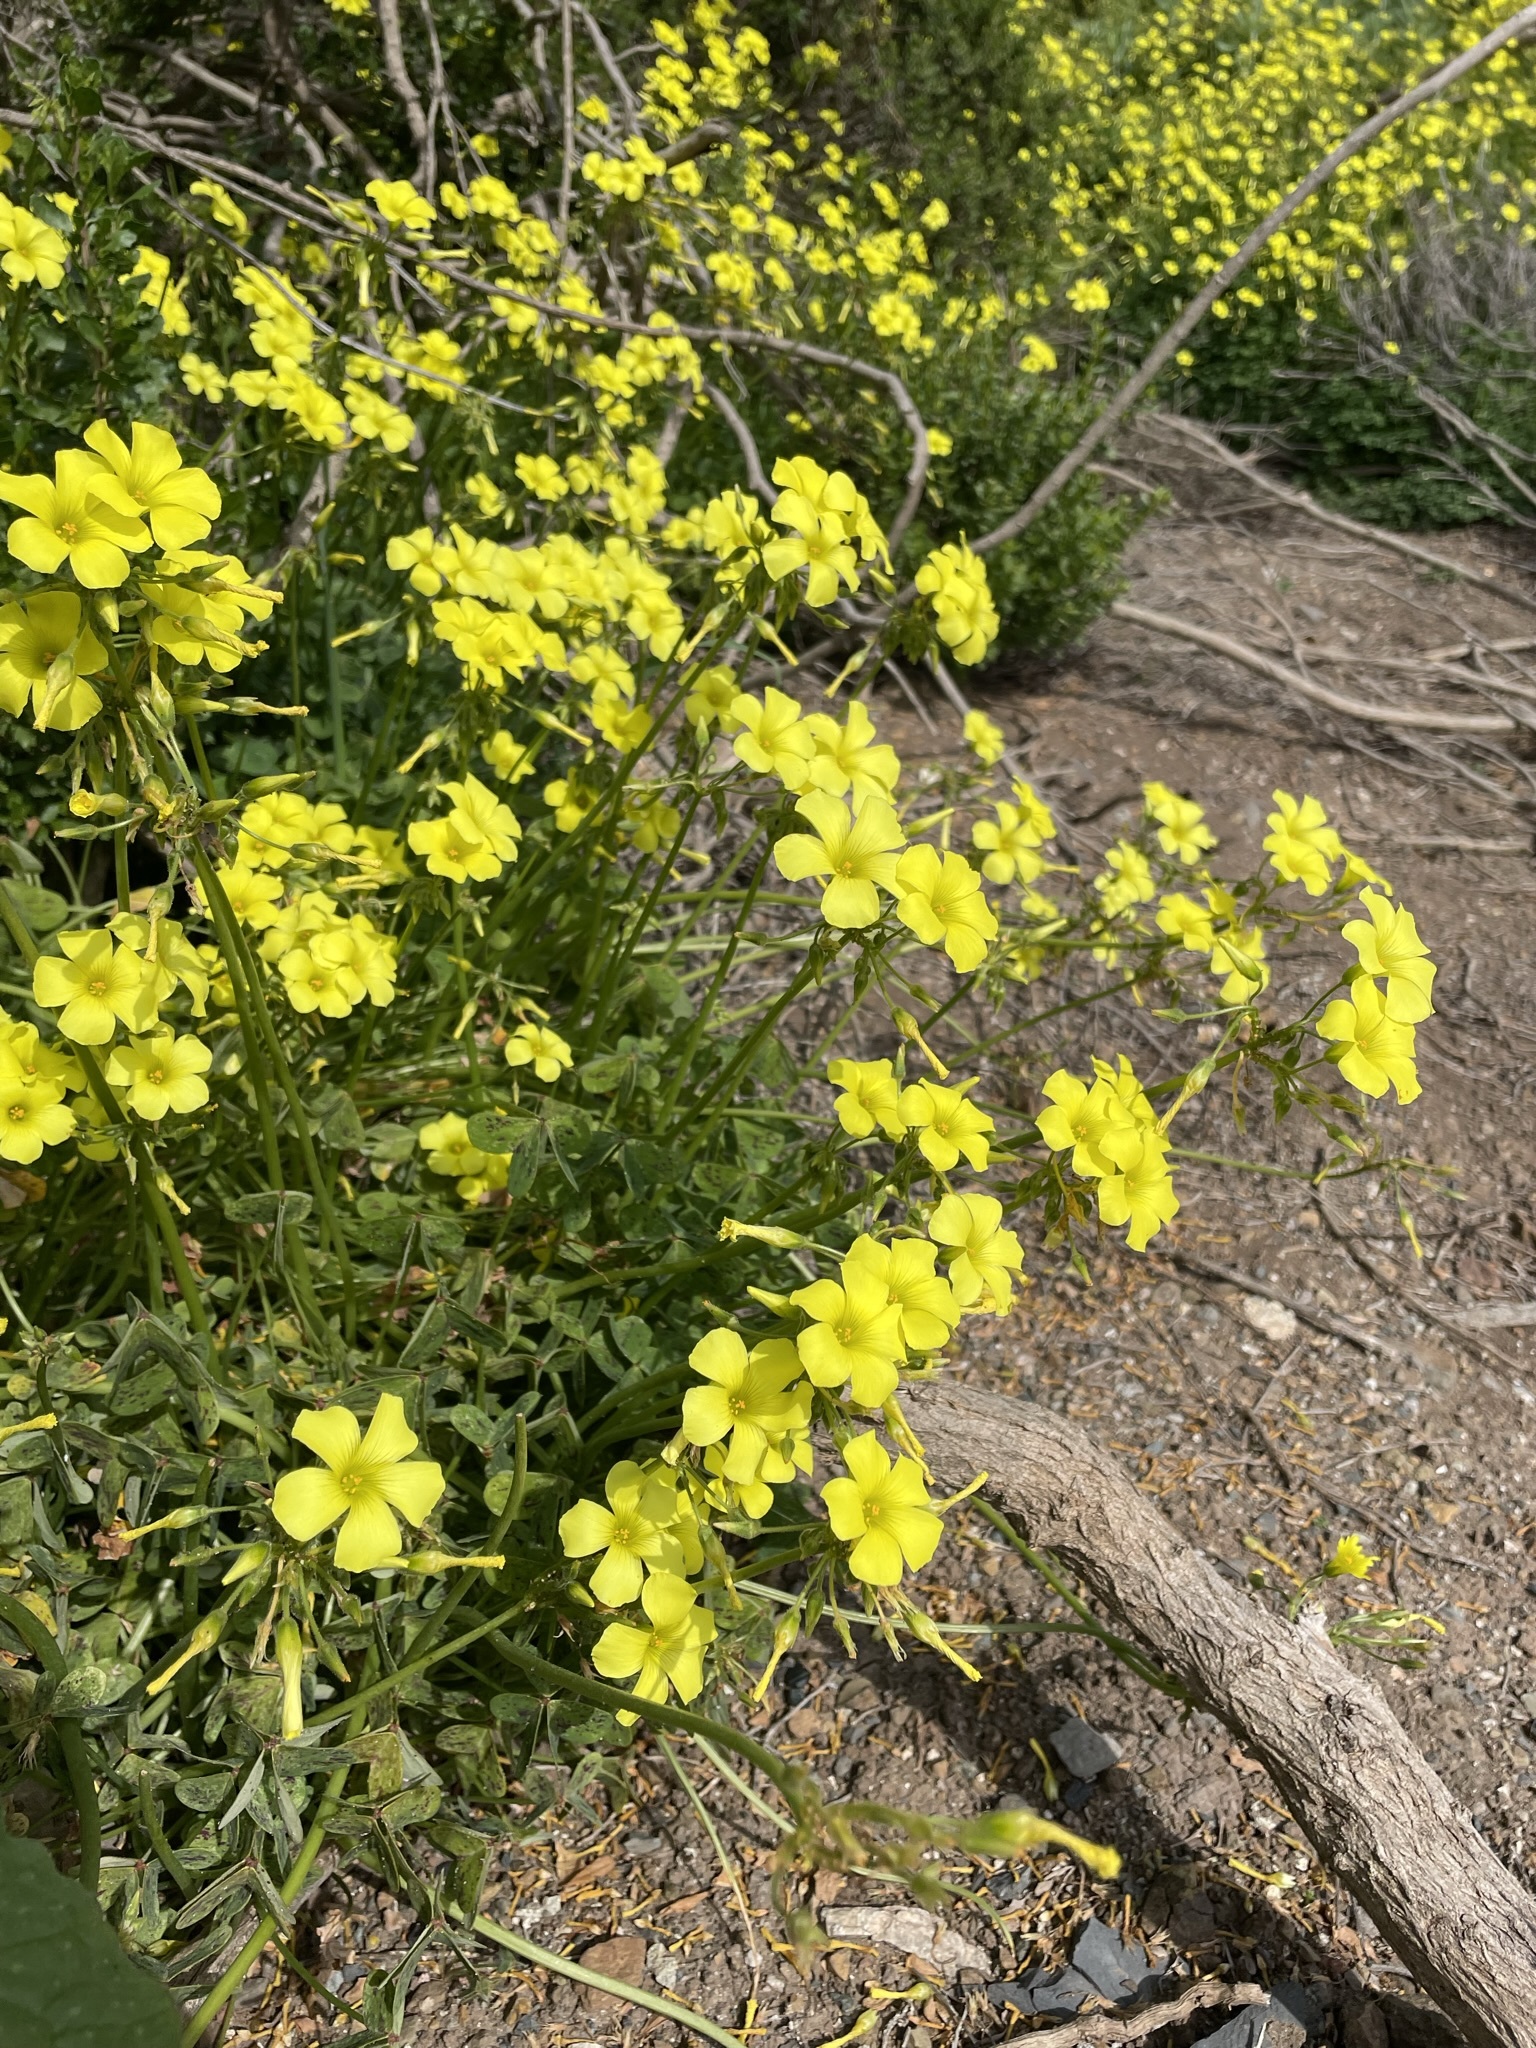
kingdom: Plantae
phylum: Tracheophyta
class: Magnoliopsida
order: Oxalidales
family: Oxalidaceae
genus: Oxalis
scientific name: Oxalis pes-caprae
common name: Bermuda-buttercup
